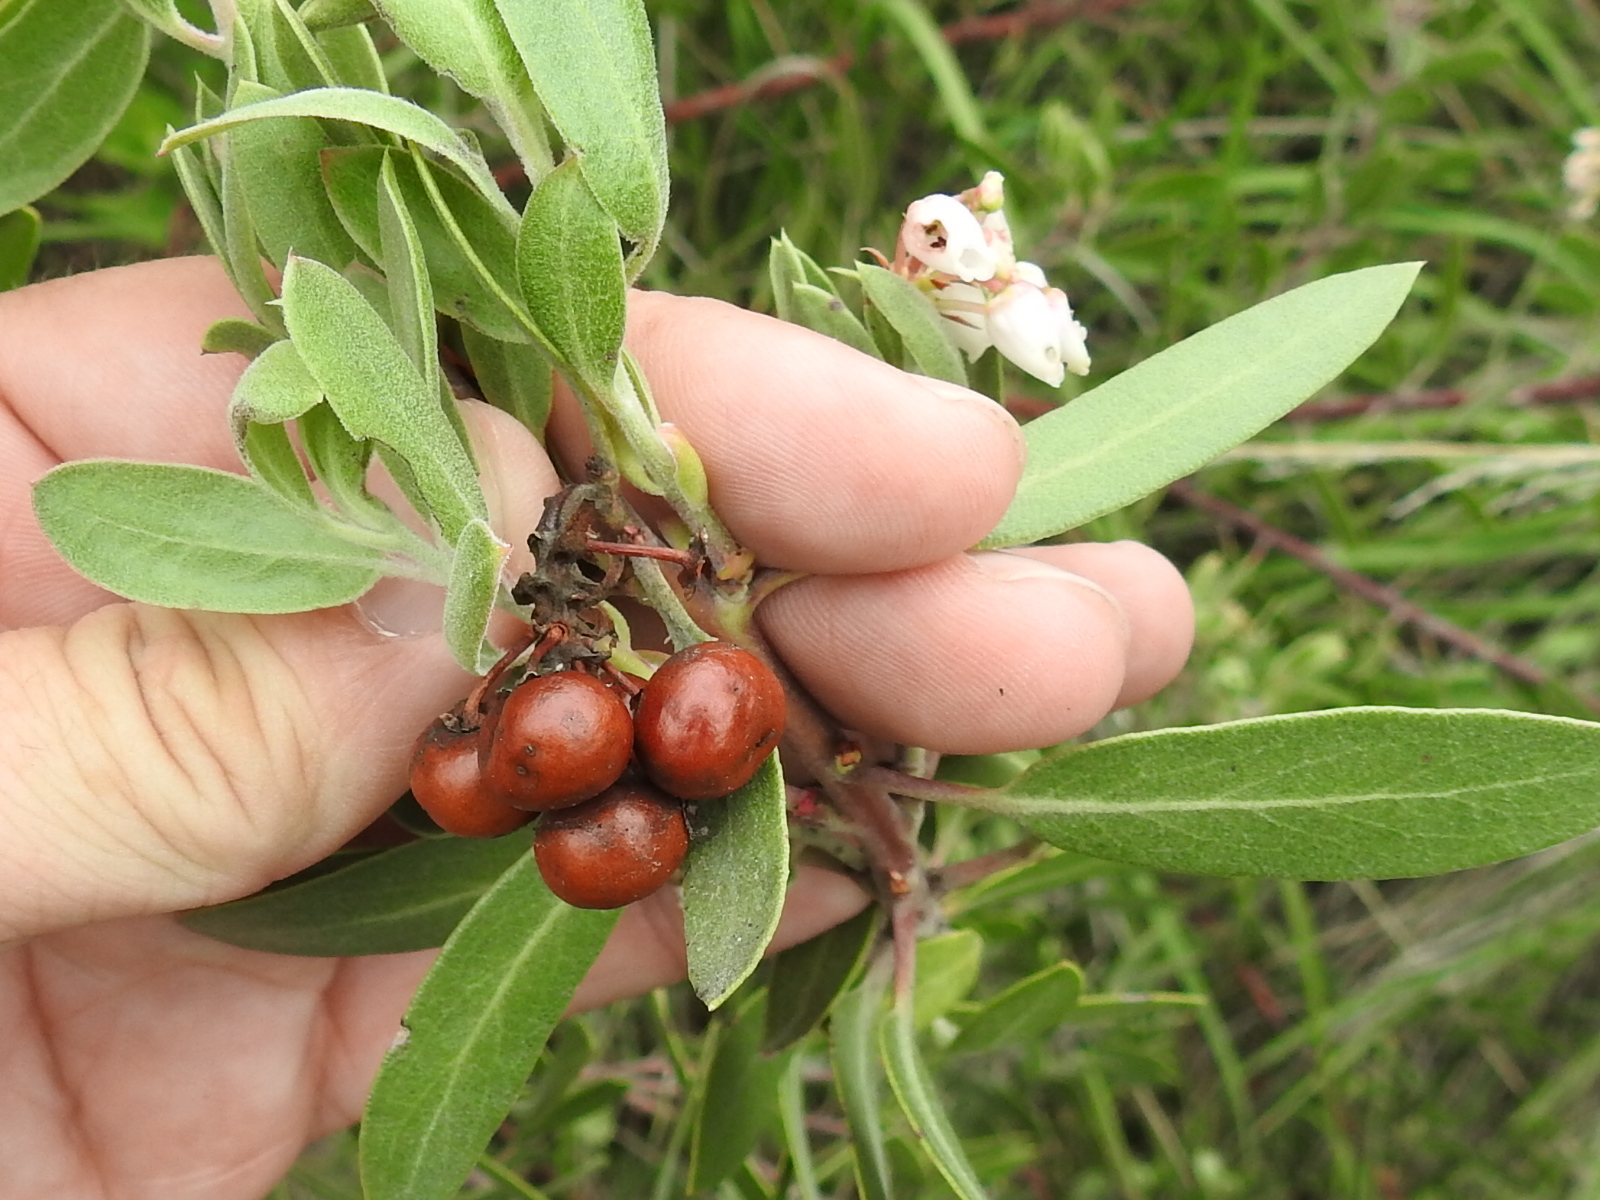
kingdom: Plantae
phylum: Tracheophyta
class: Magnoliopsida
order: Ericales
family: Ericaceae
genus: Arctostaphylos
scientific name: Arctostaphylos pungens
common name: Mexican manzanita
